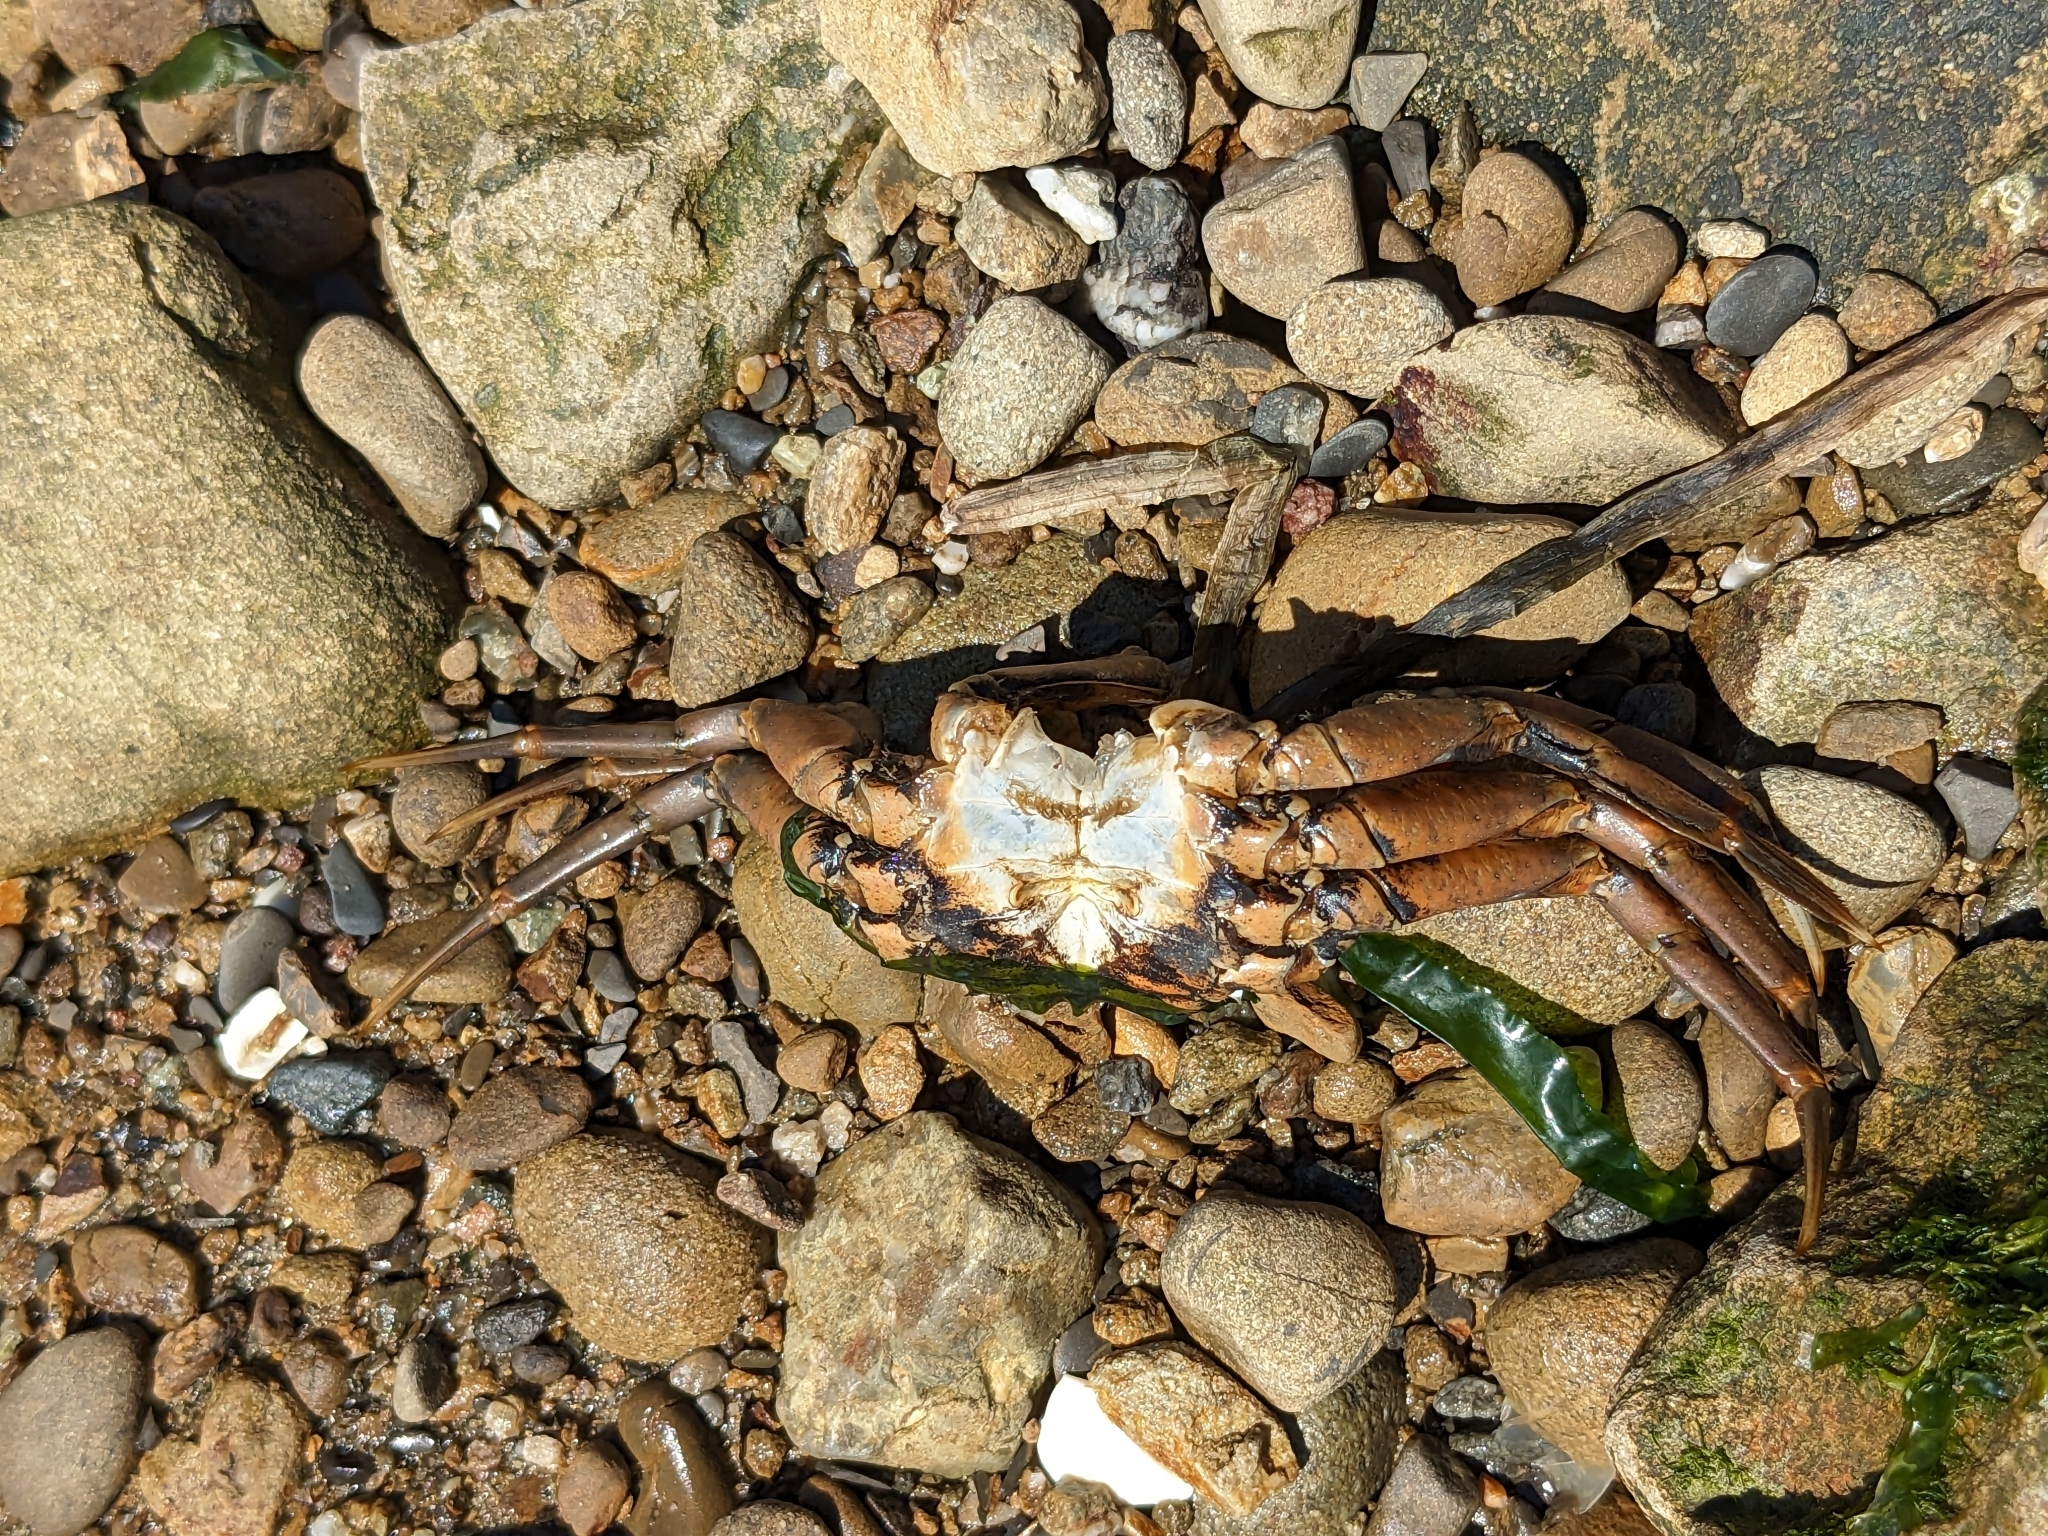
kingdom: Animalia
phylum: Arthropoda
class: Malacostraca
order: Decapoda
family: Carcinidae
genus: Carcinus
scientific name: Carcinus maenas
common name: European green crab
